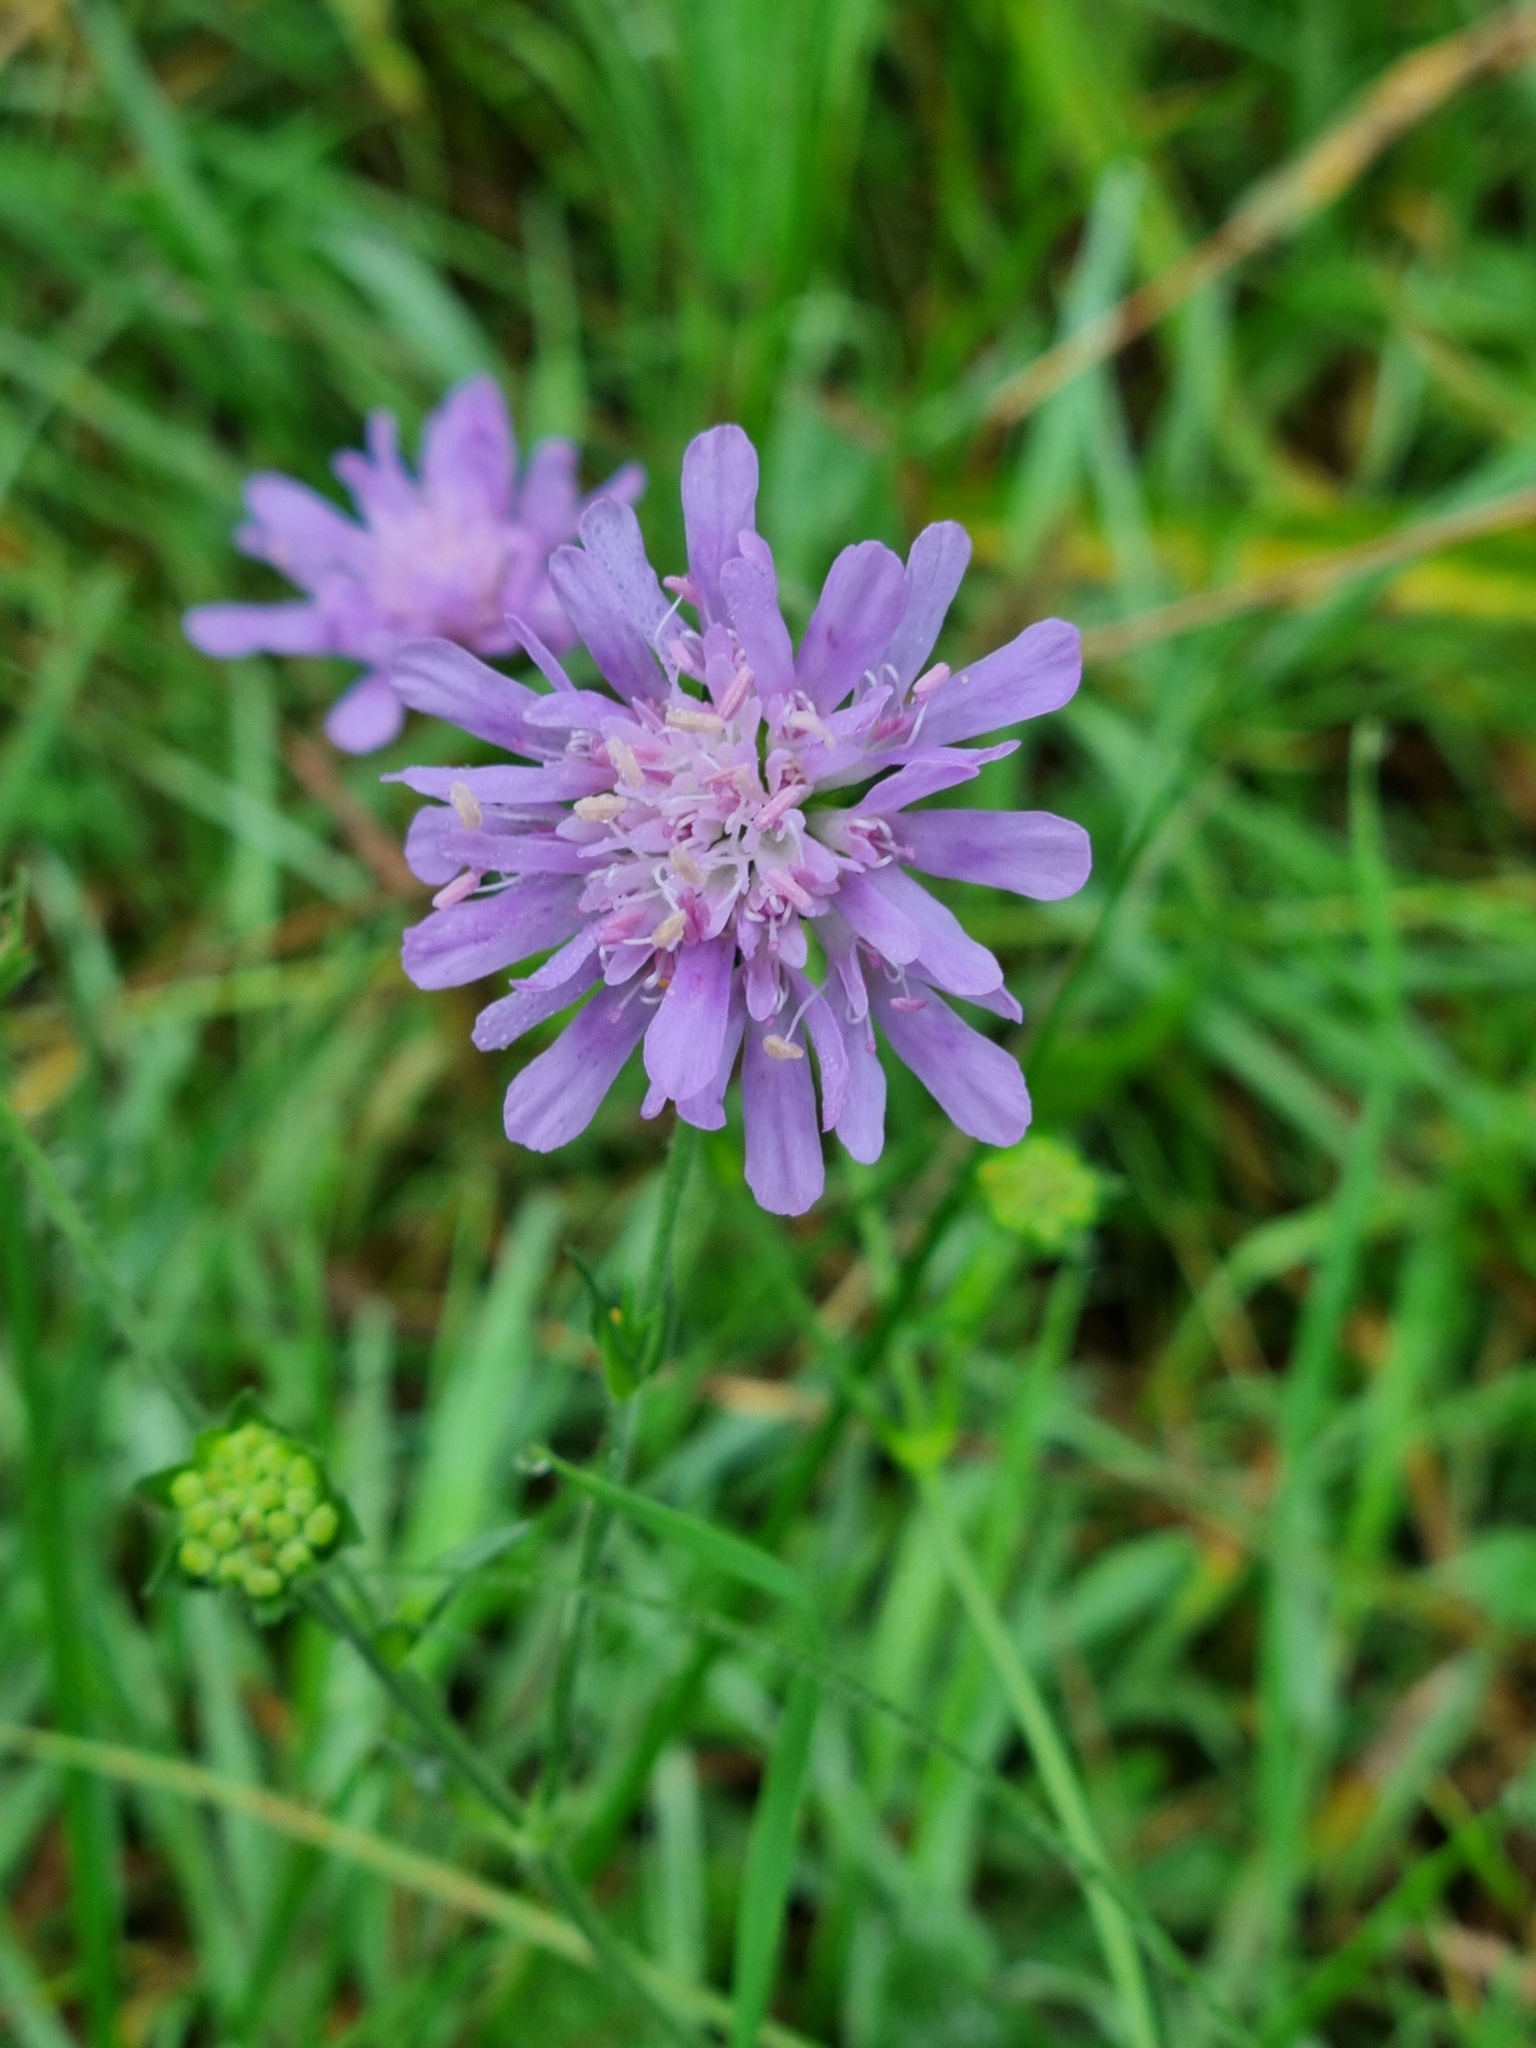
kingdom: Plantae
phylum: Tracheophyta
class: Magnoliopsida
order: Dipsacales
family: Caprifoliaceae
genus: Knautia
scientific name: Knautia arvensis
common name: Field scabiosa
